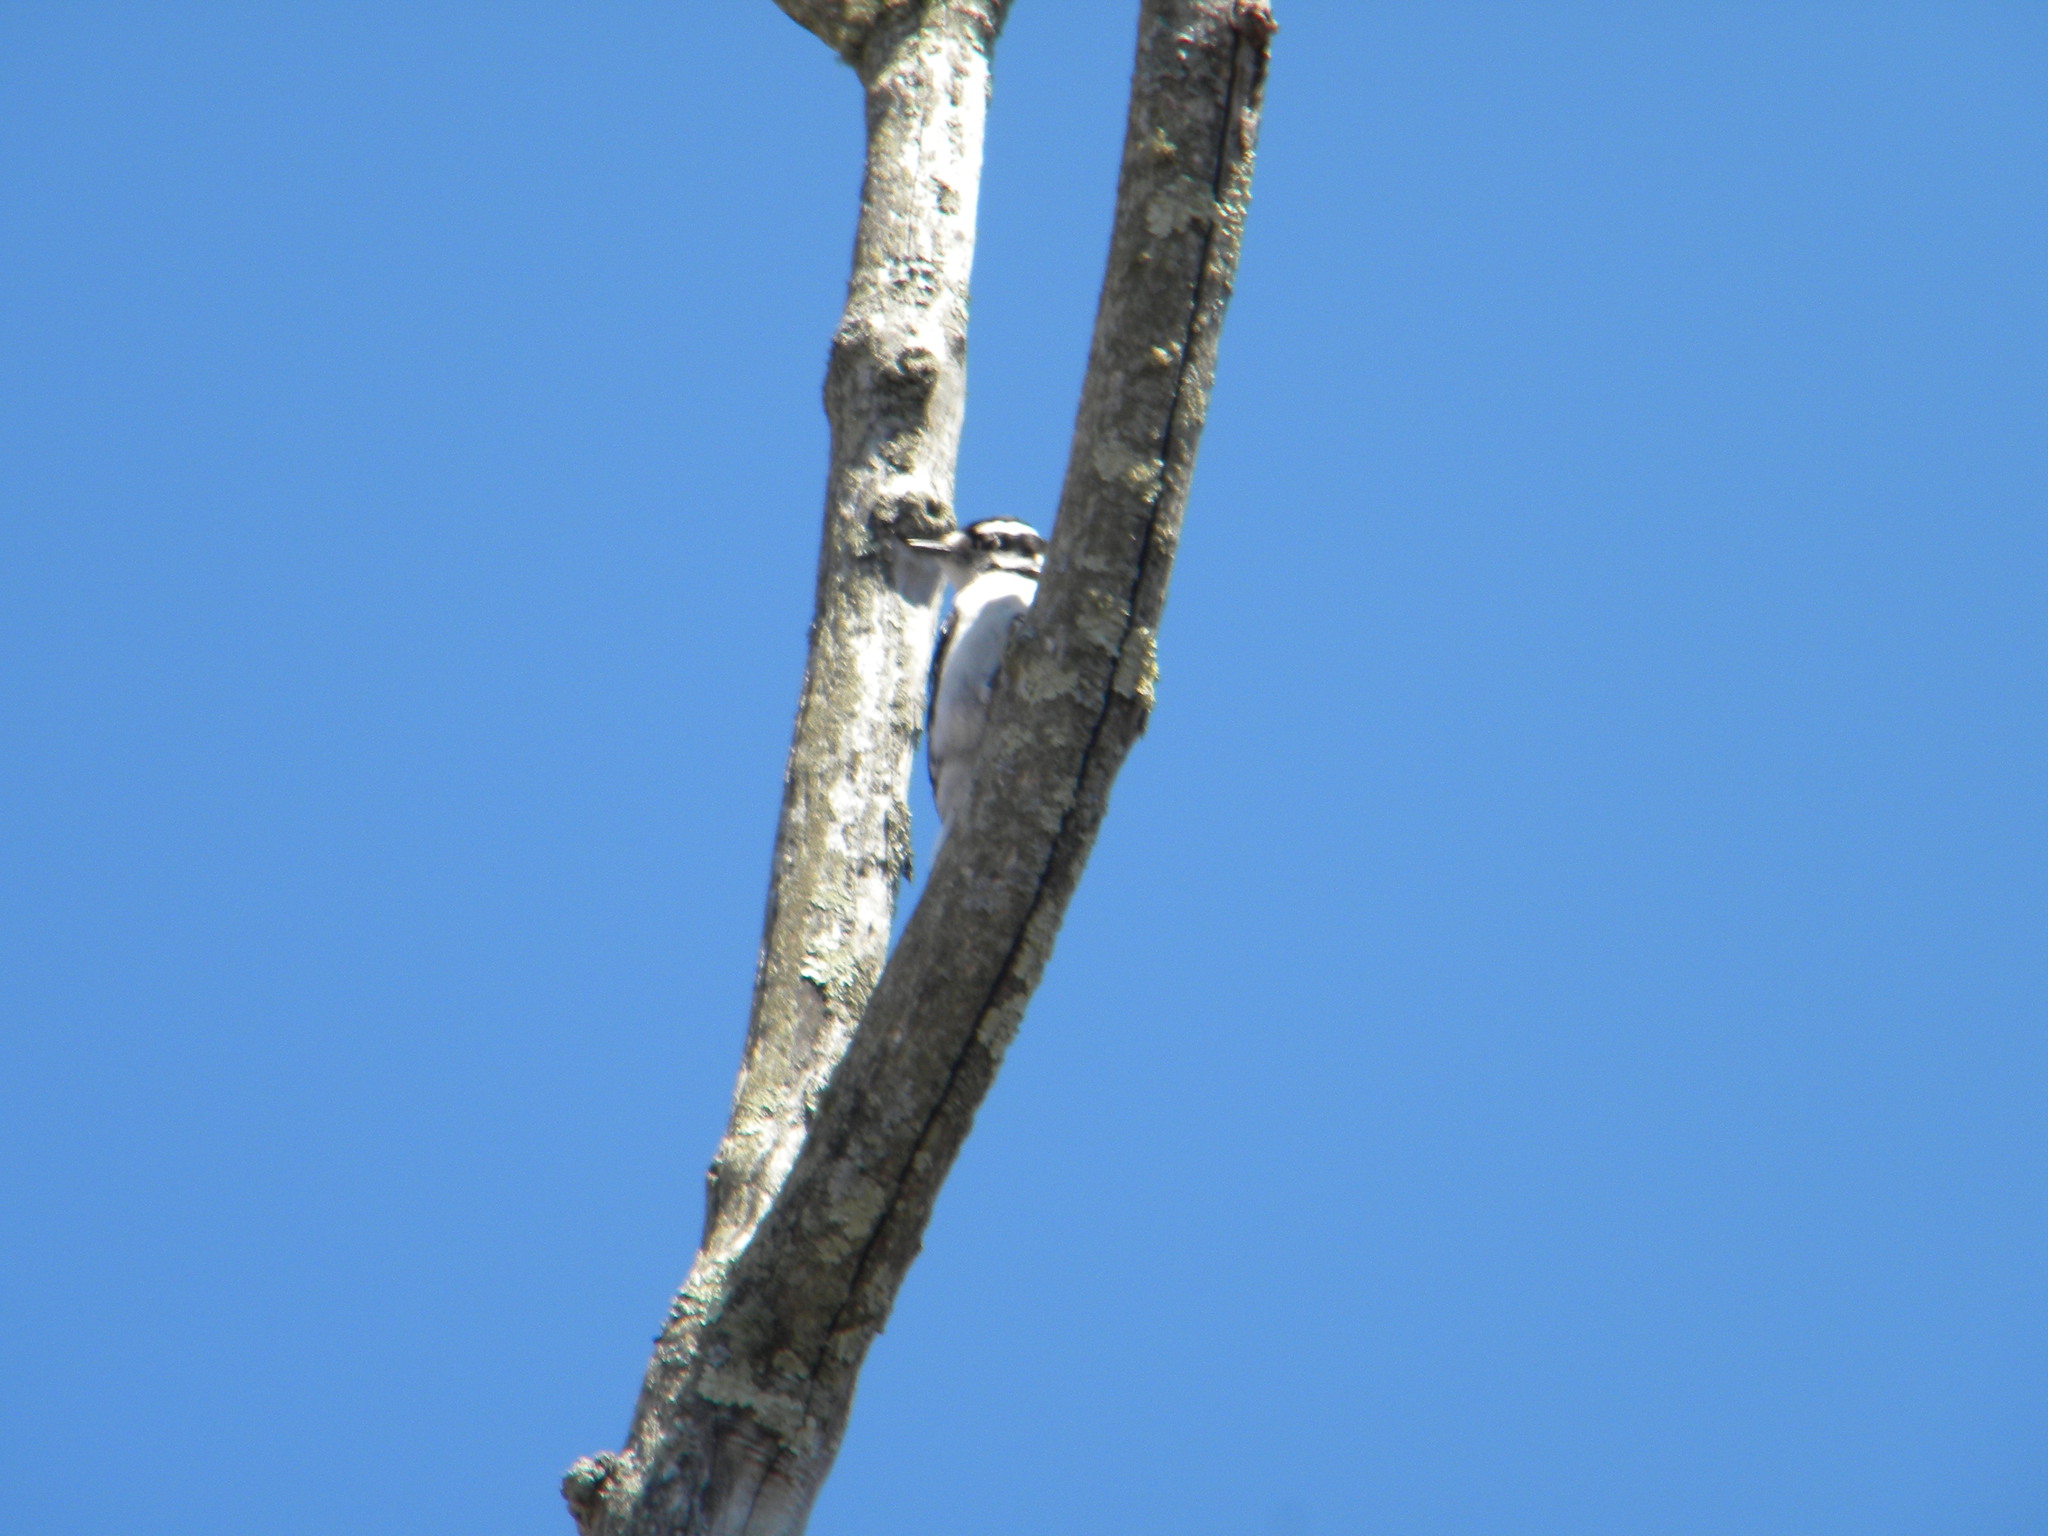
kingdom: Animalia
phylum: Chordata
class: Aves
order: Piciformes
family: Picidae
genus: Dryobates
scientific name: Dryobates pubescens
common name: Downy woodpecker
